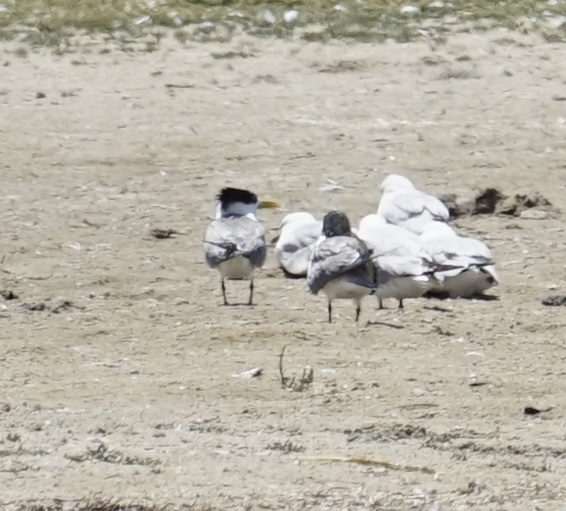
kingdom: Animalia
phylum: Chordata
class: Aves
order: Charadriiformes
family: Laridae
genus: Thalasseus
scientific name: Thalasseus bergii
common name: Greater crested tern
